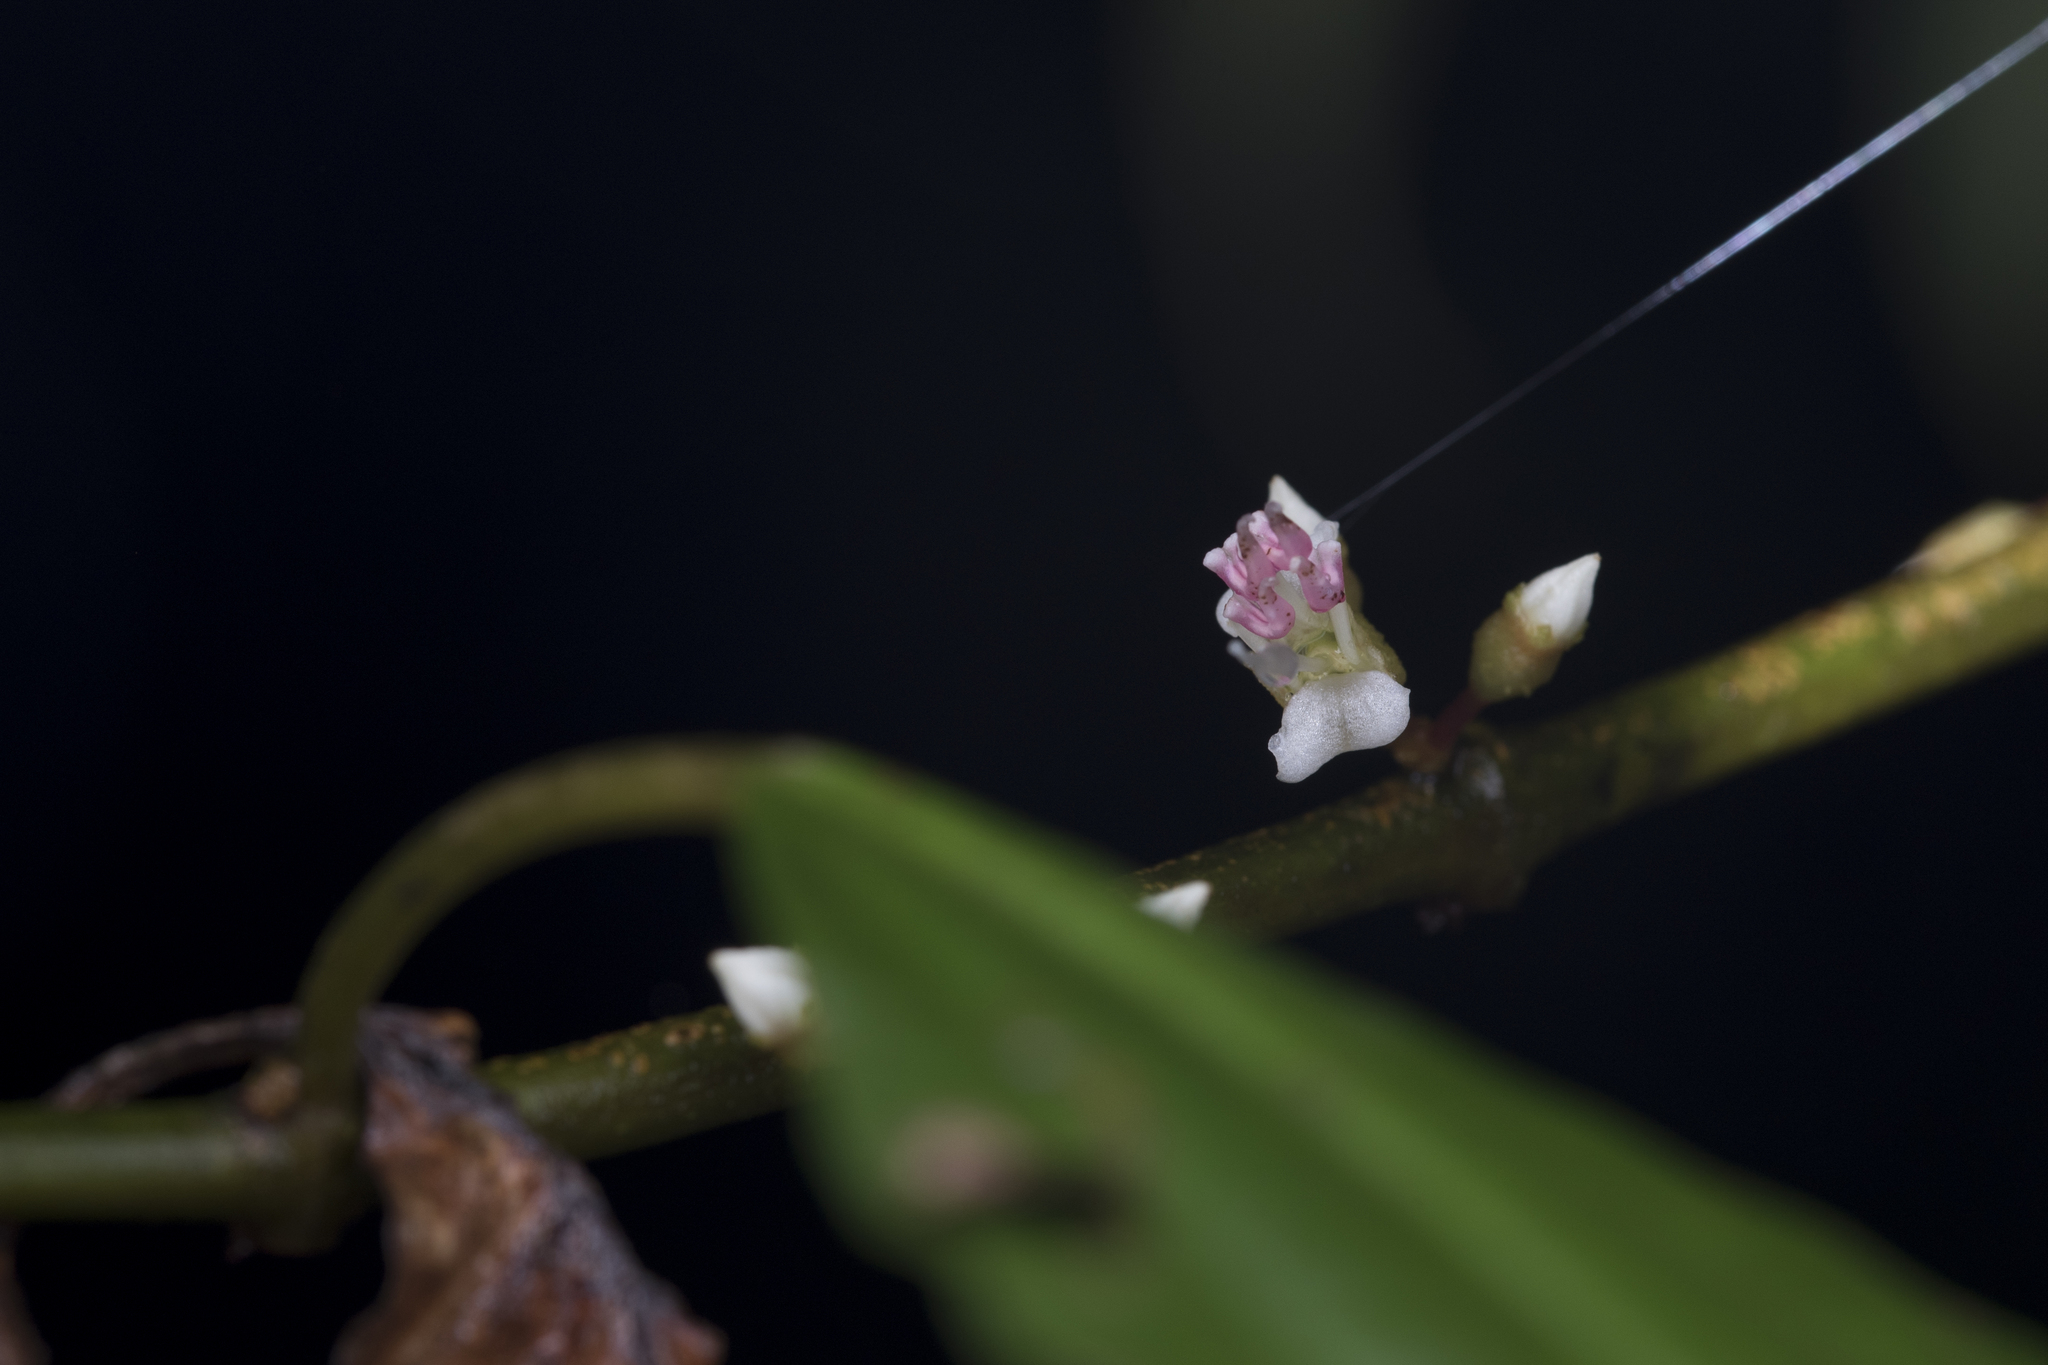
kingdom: Plantae
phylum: Tracheophyta
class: Magnoliopsida
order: Myrtales
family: Melastomataceae
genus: Blastus
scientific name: Blastus cochinchinensis
